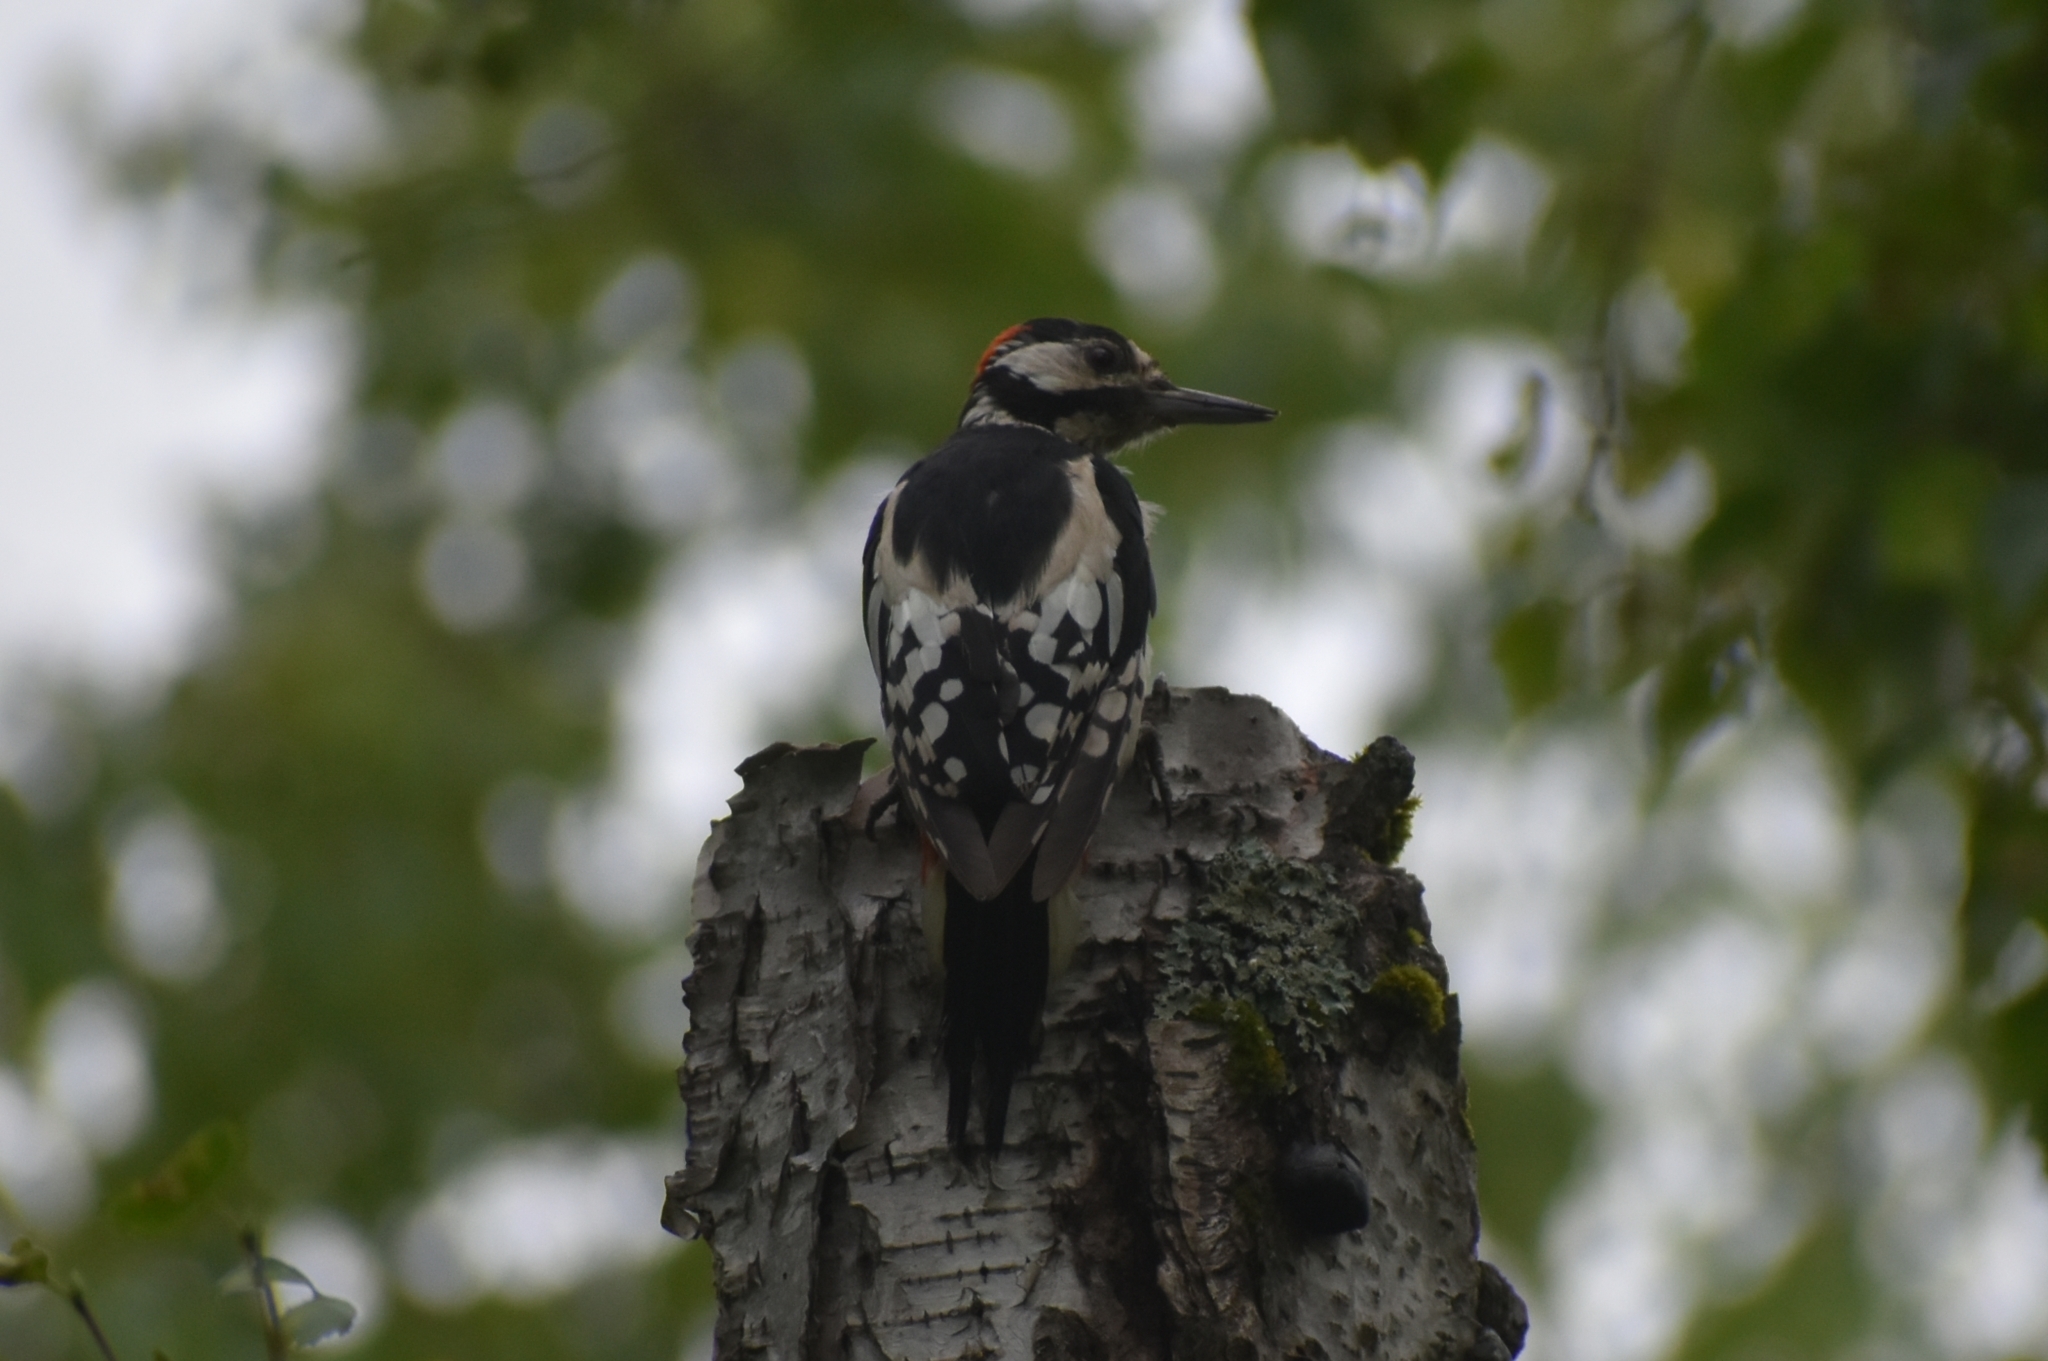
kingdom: Animalia
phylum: Chordata
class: Aves
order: Piciformes
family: Picidae
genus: Dendrocopos
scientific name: Dendrocopos major
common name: Great spotted woodpecker
